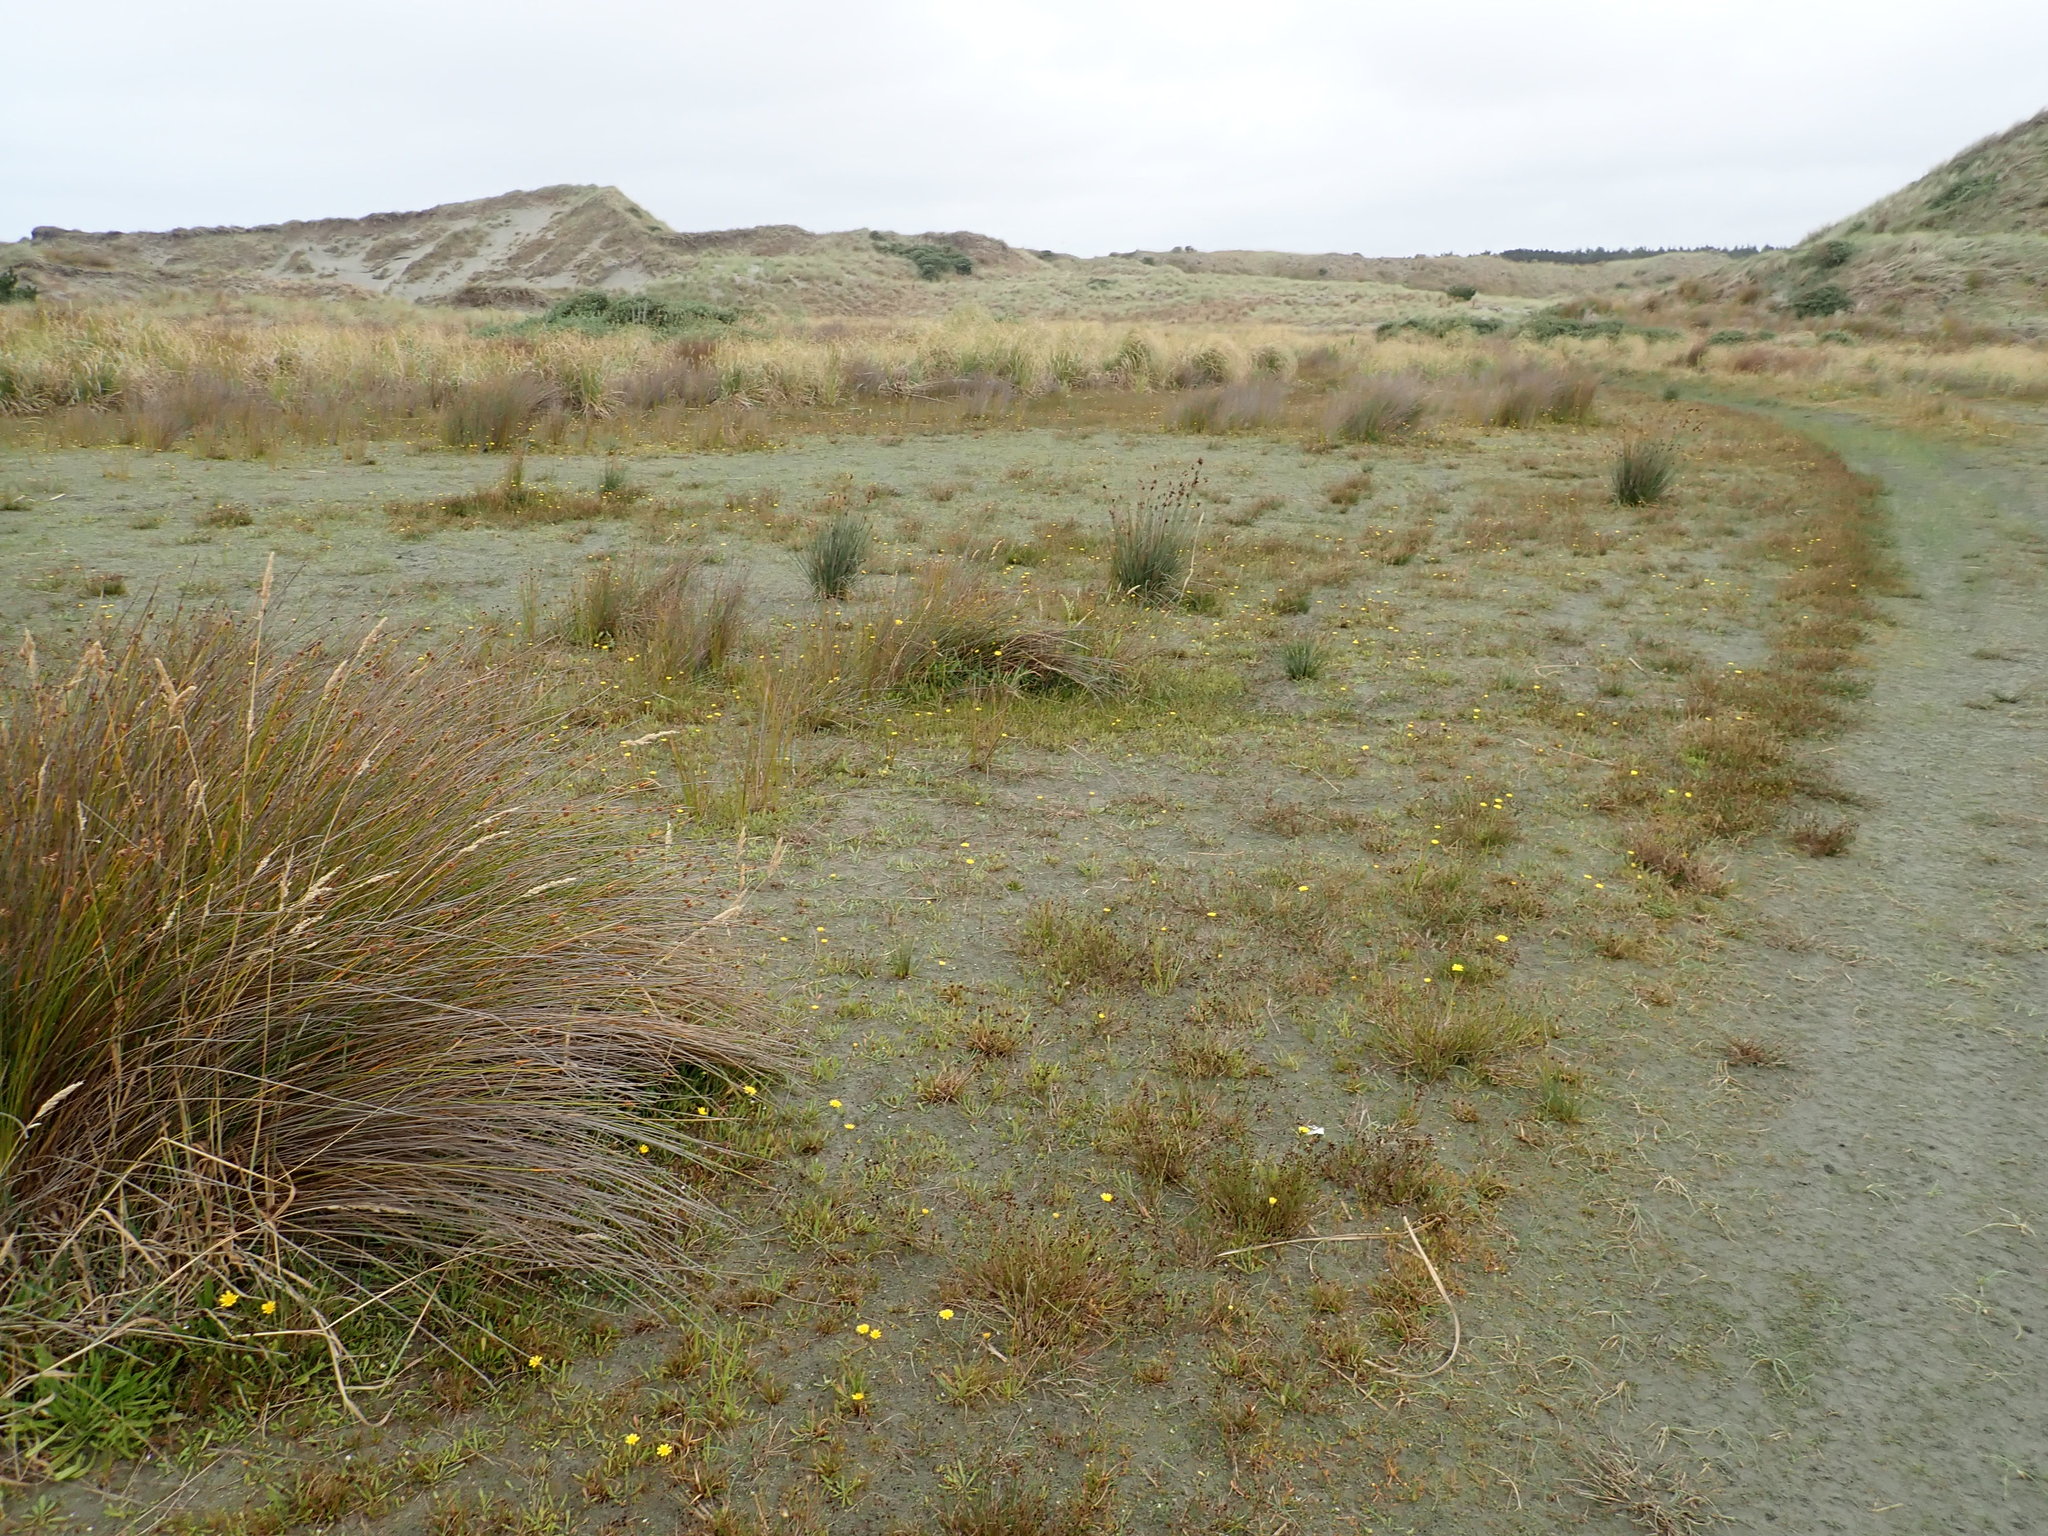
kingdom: Plantae
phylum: Tracheophyta
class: Magnoliopsida
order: Asterales
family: Asteraceae
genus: Thrincia
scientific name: Thrincia saxatilis
